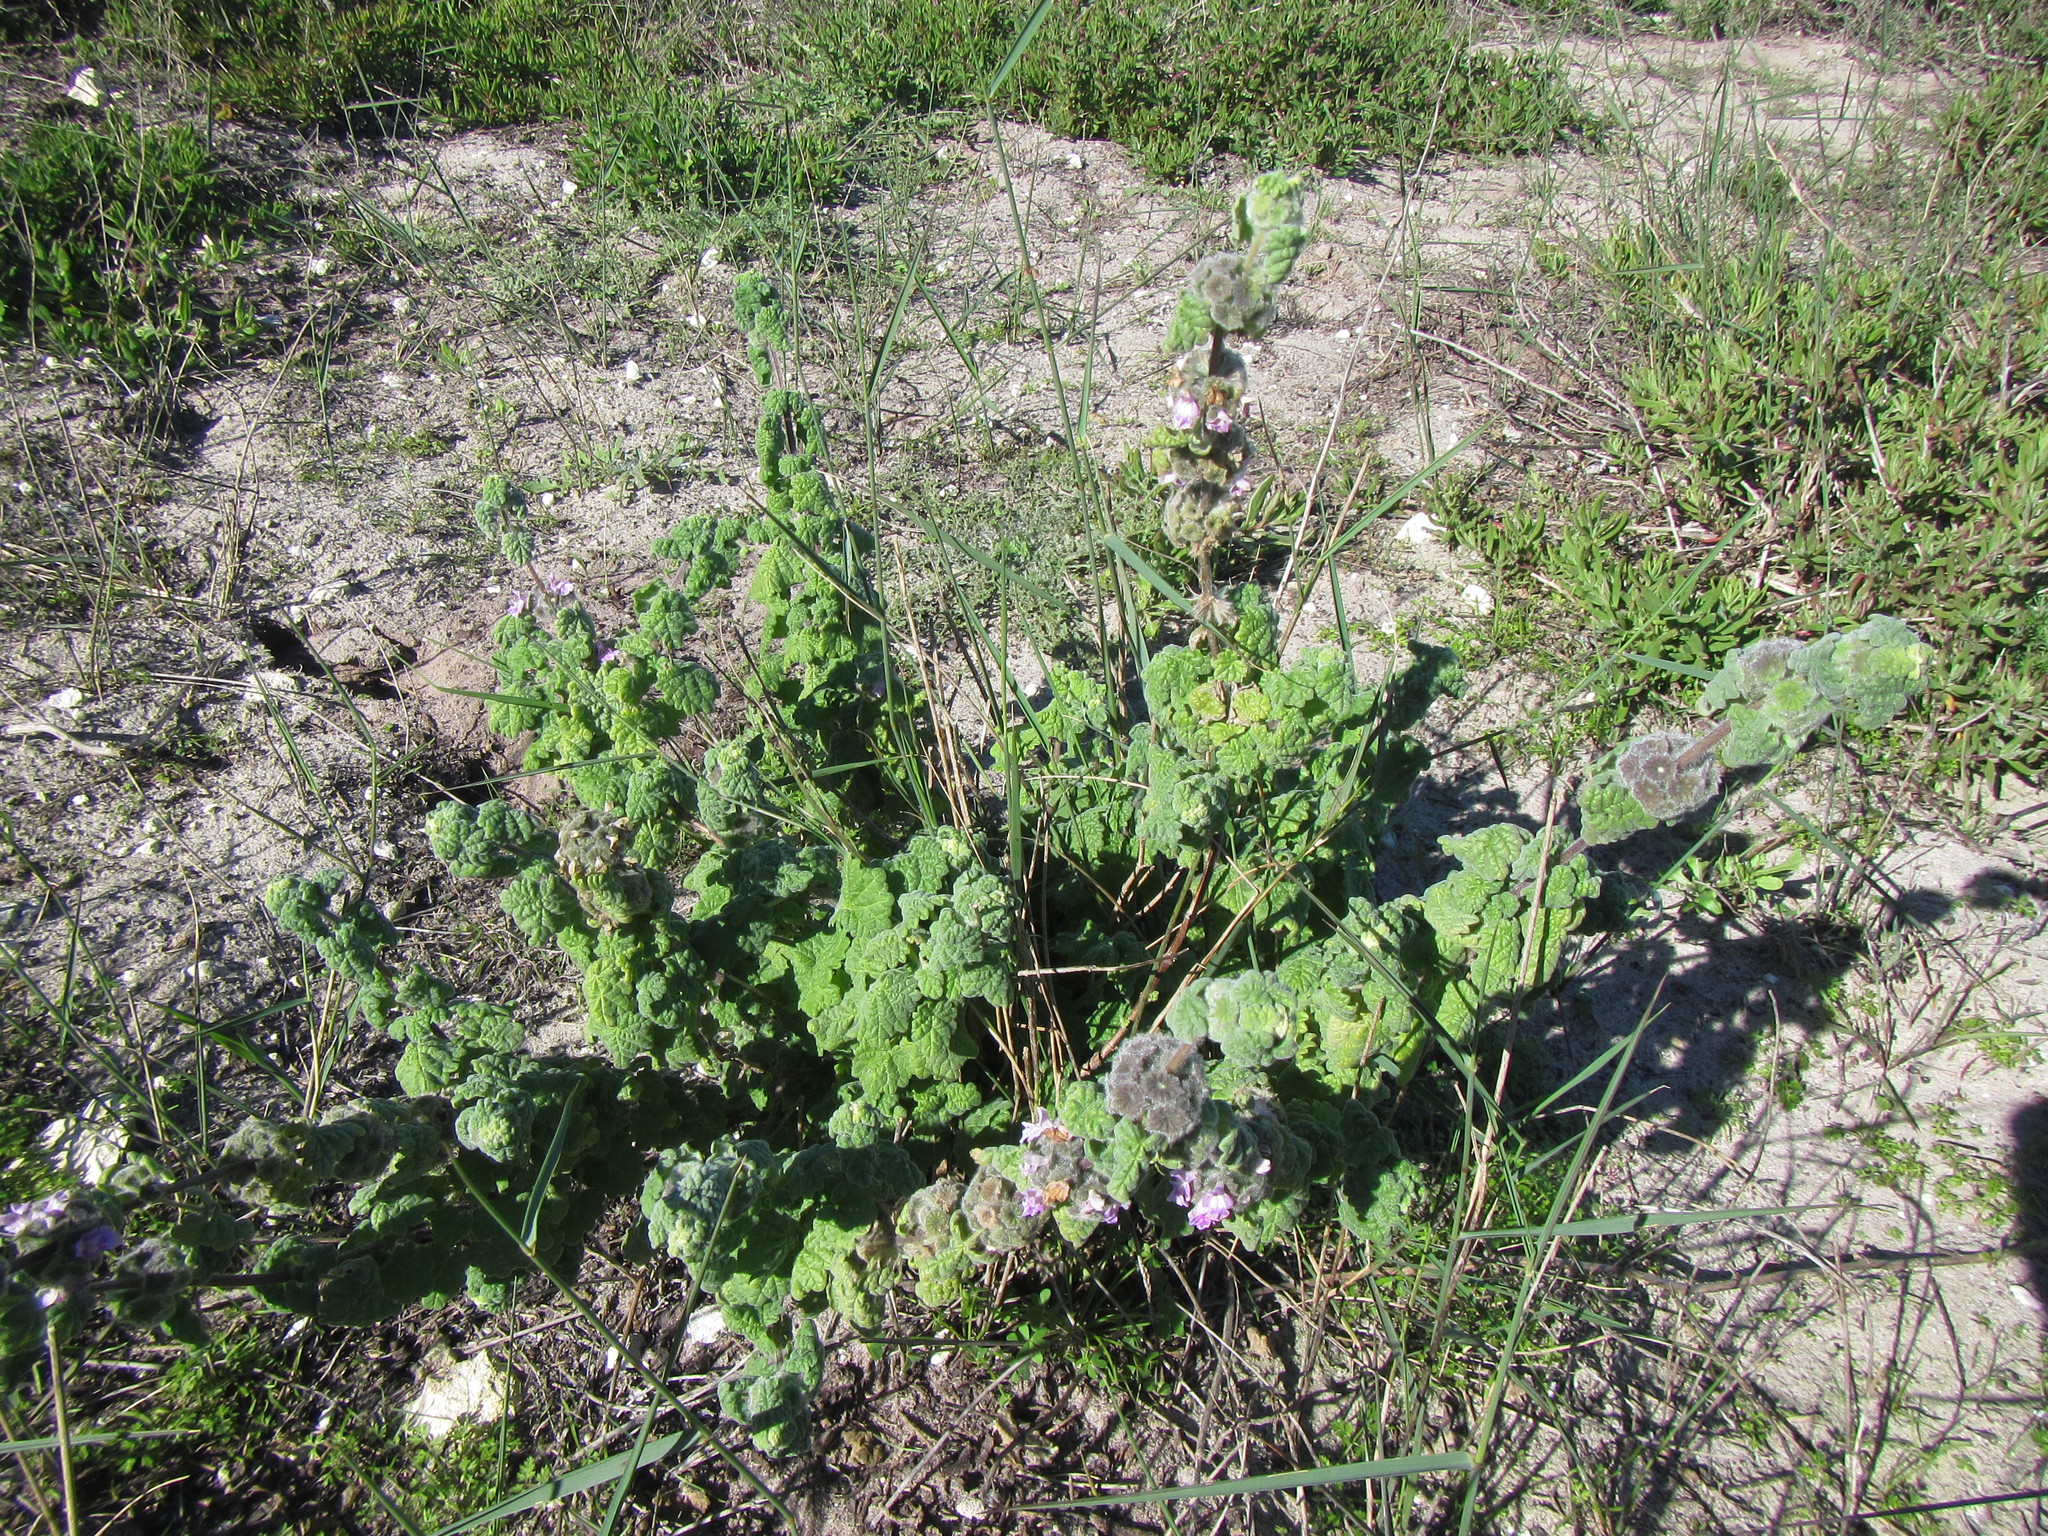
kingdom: Plantae
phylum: Tracheophyta
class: Magnoliopsida
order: Lamiales
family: Lamiaceae
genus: Pseudodictamnus
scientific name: Pseudodictamnus africanus
